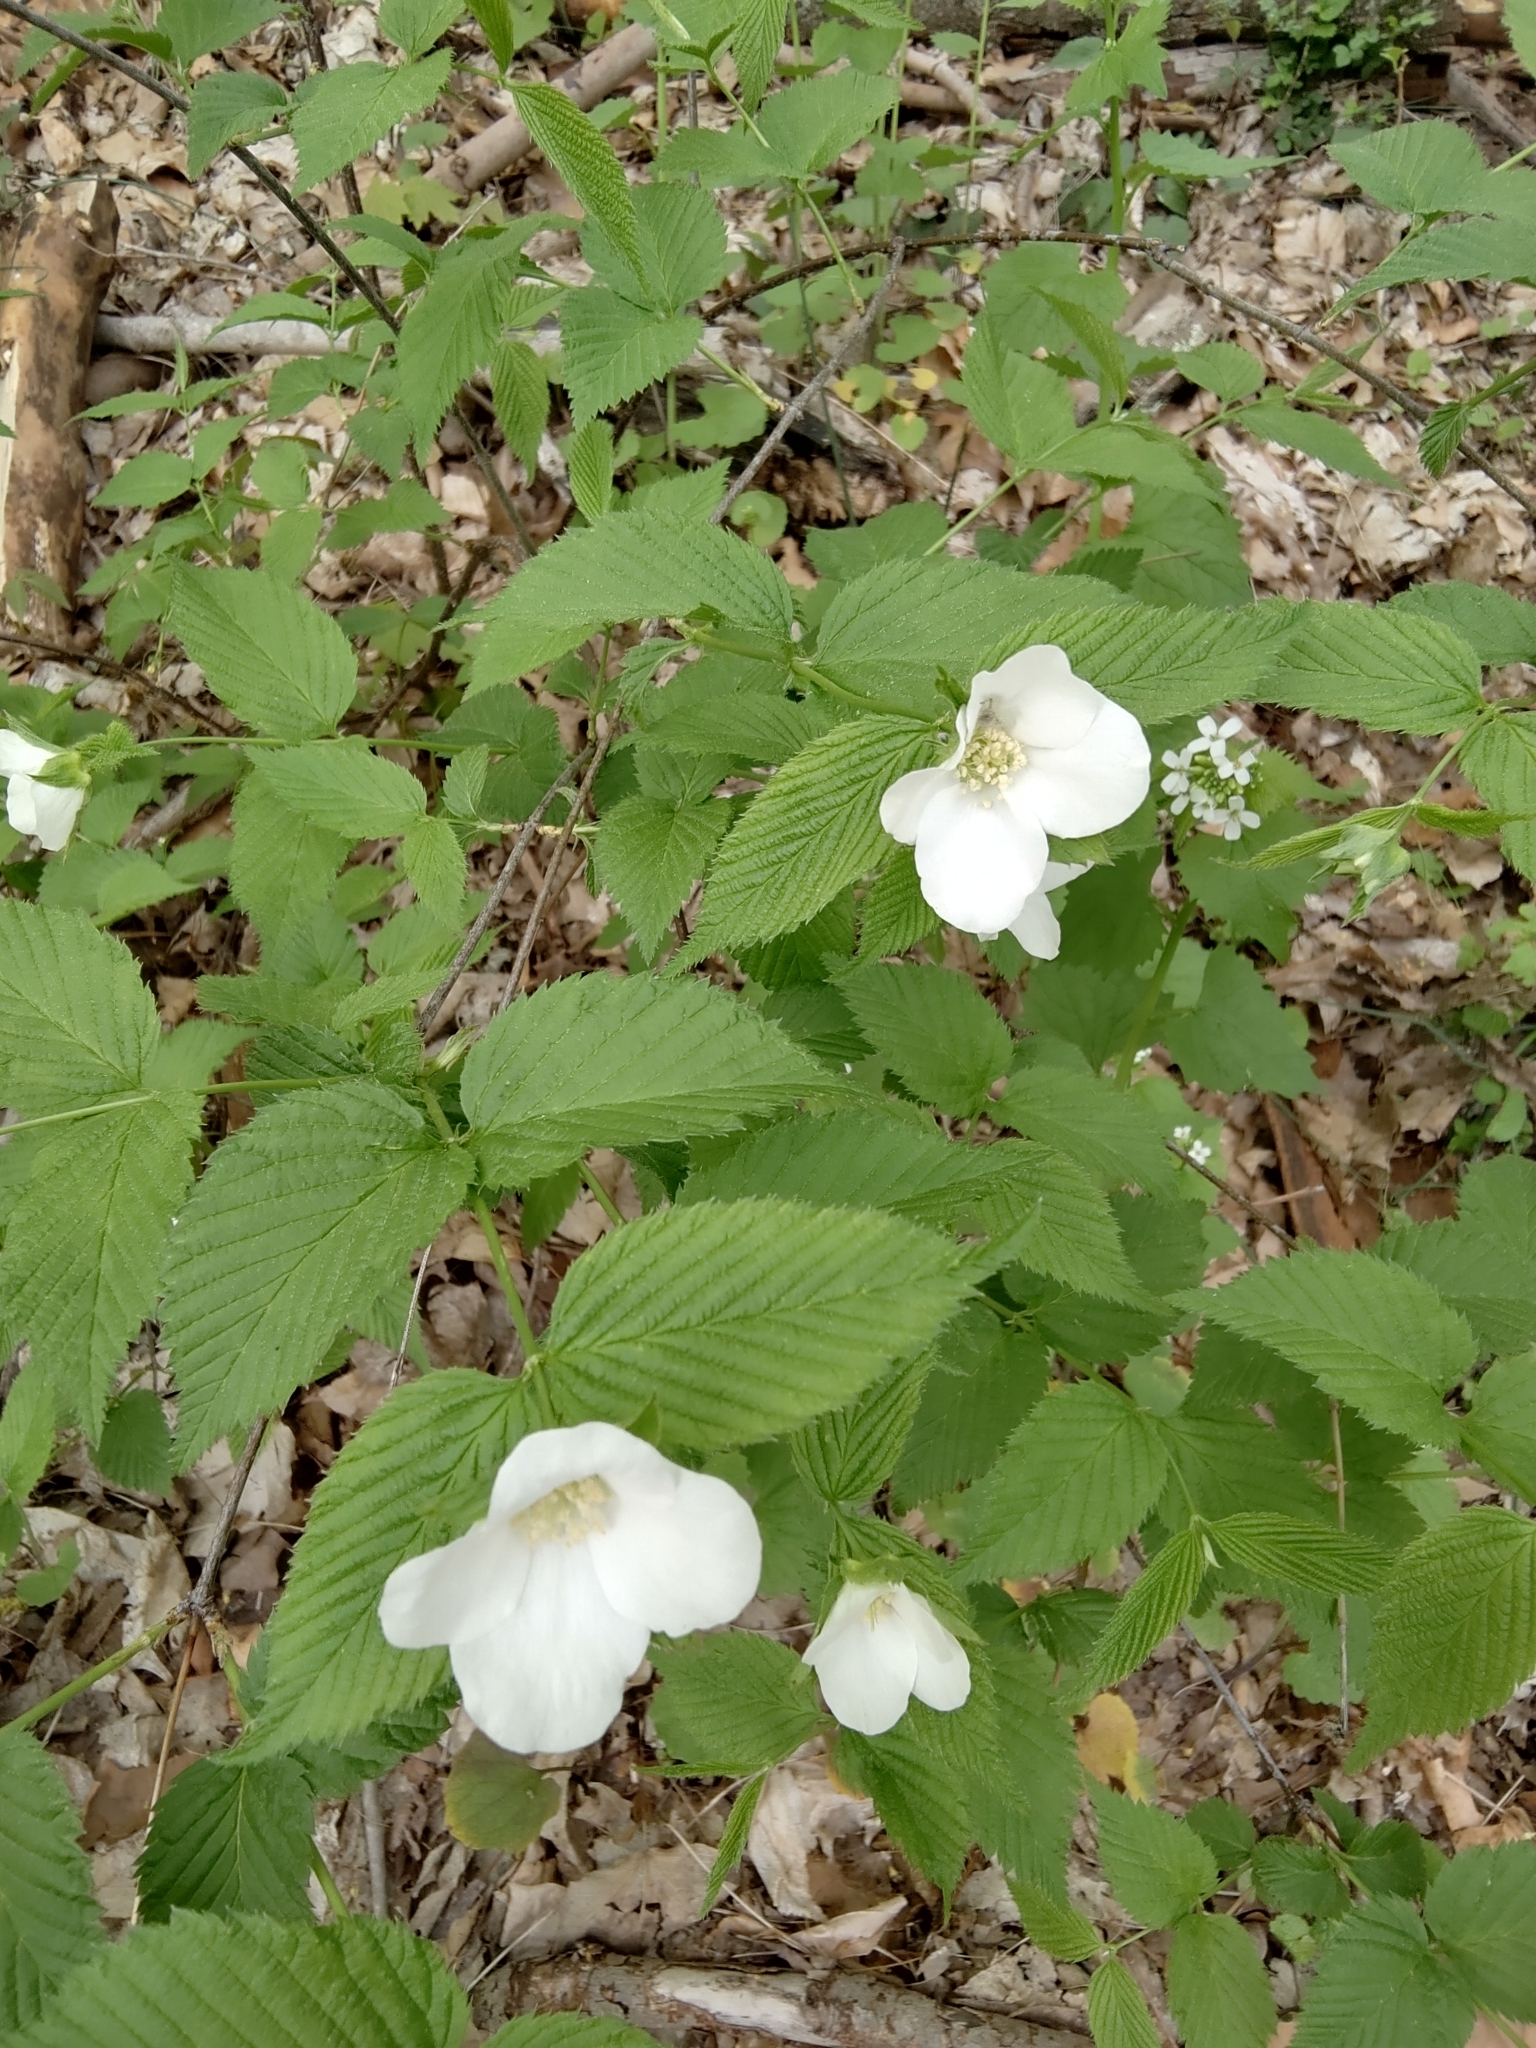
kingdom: Plantae
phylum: Tracheophyta
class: Magnoliopsida
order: Rosales
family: Rosaceae
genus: Rhodotypos
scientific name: Rhodotypos scandens
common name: Jetbead
